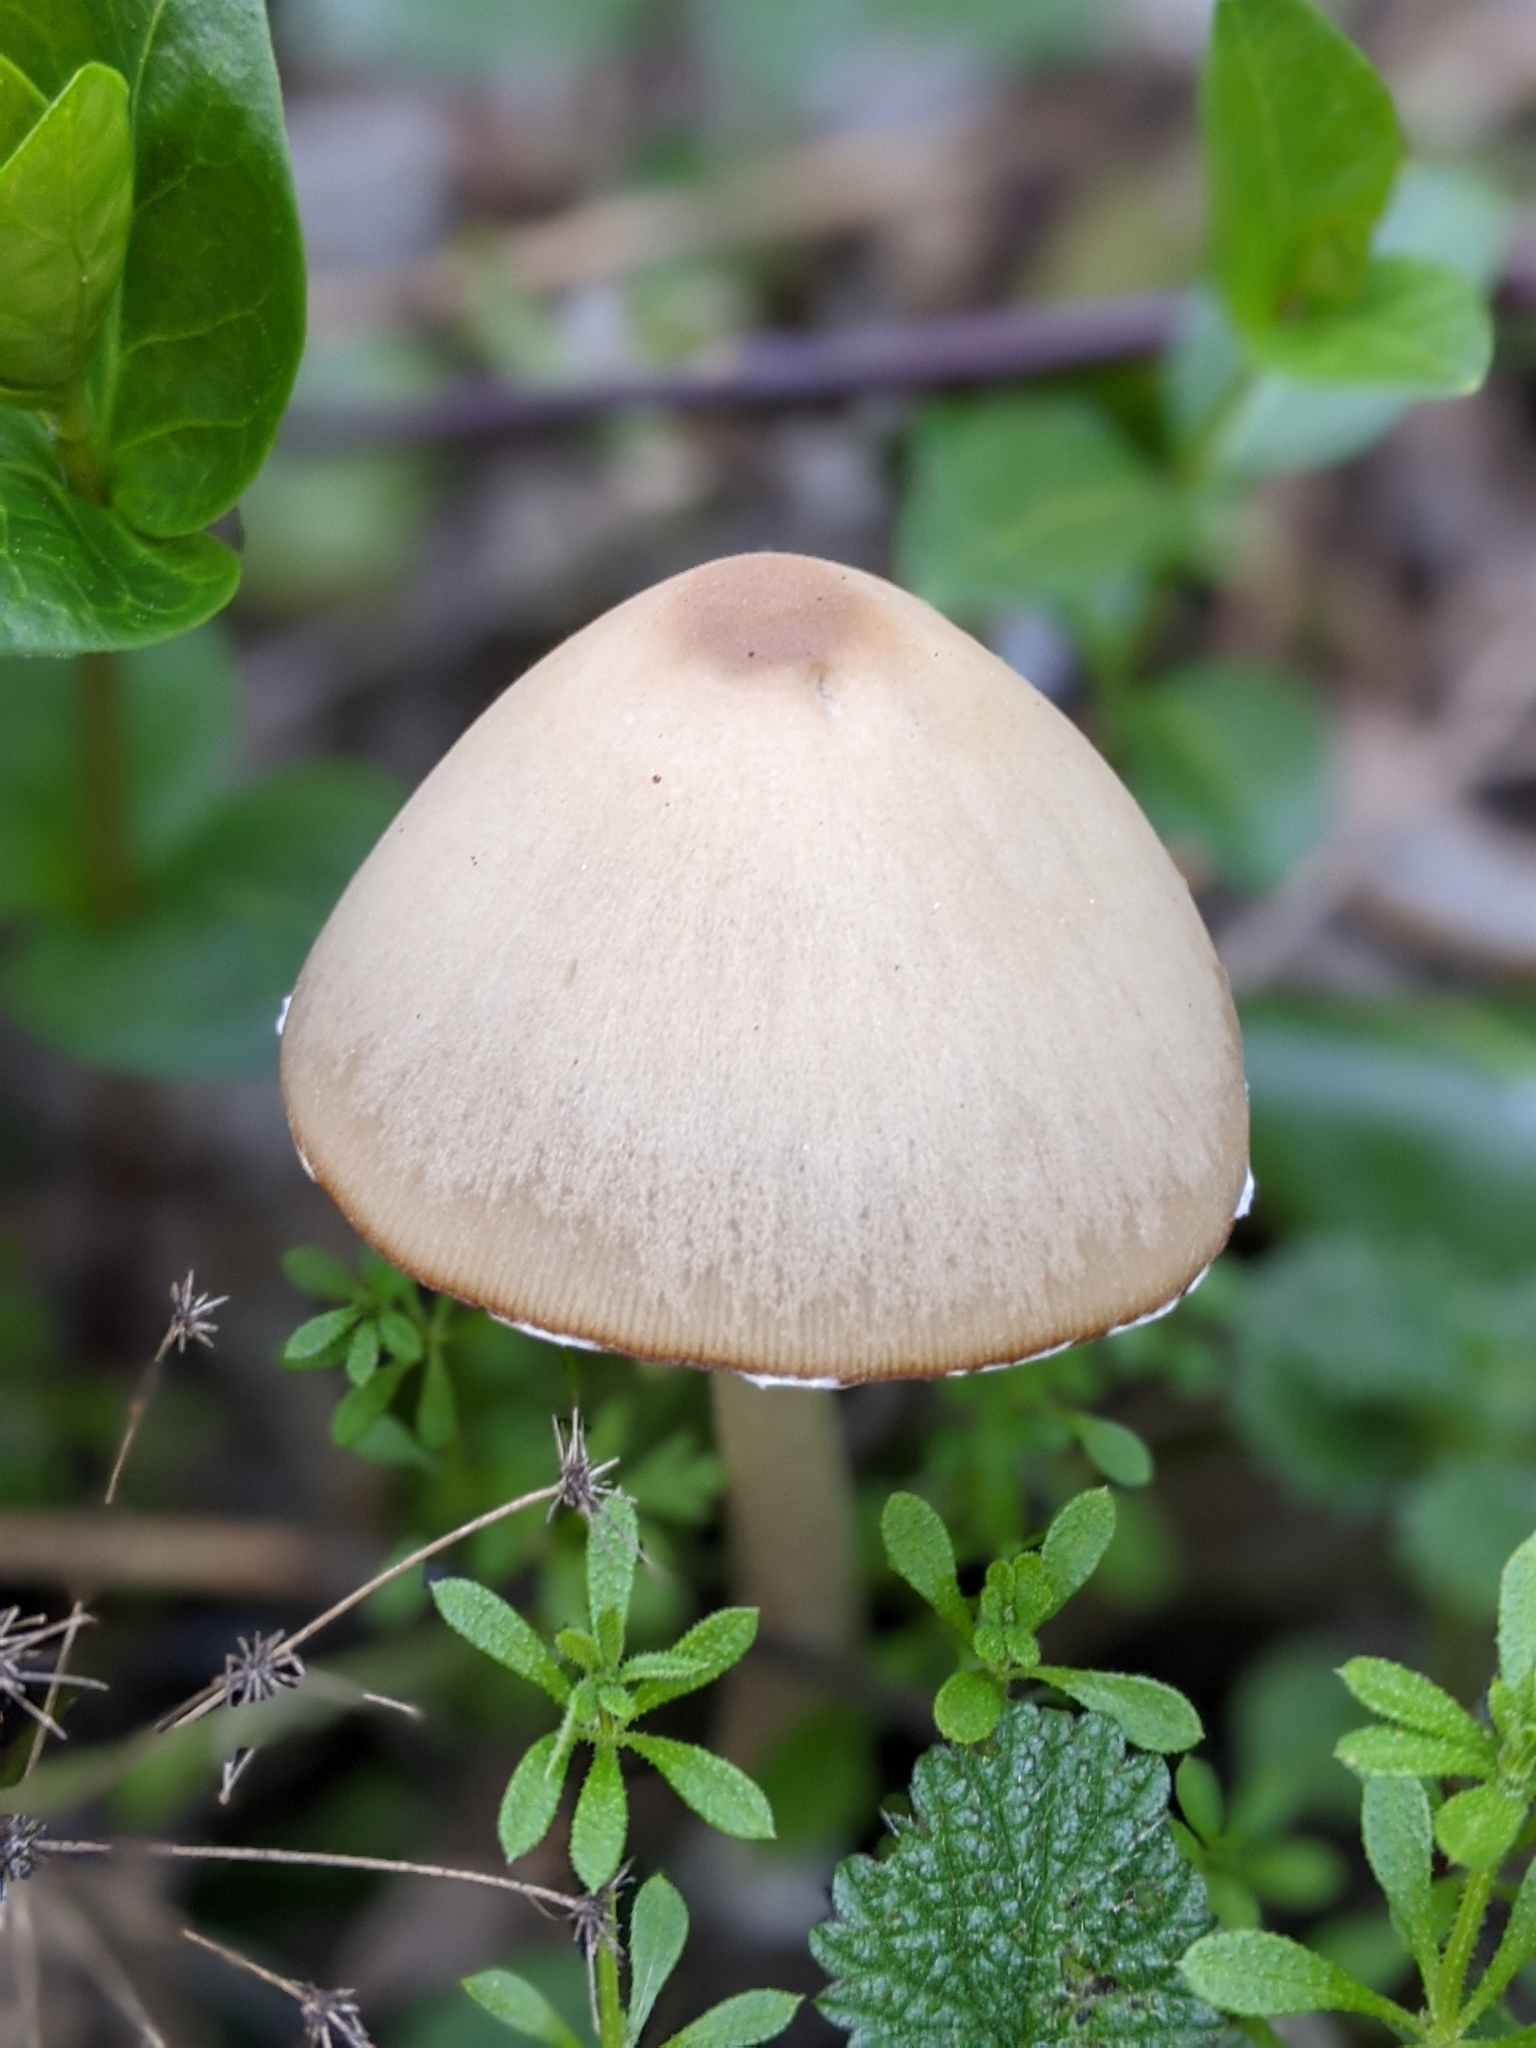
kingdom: Fungi
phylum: Basidiomycota
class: Agaricomycetes
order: Agaricales
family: Psathyrellaceae
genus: Psathyrella
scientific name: Psathyrella longipes
